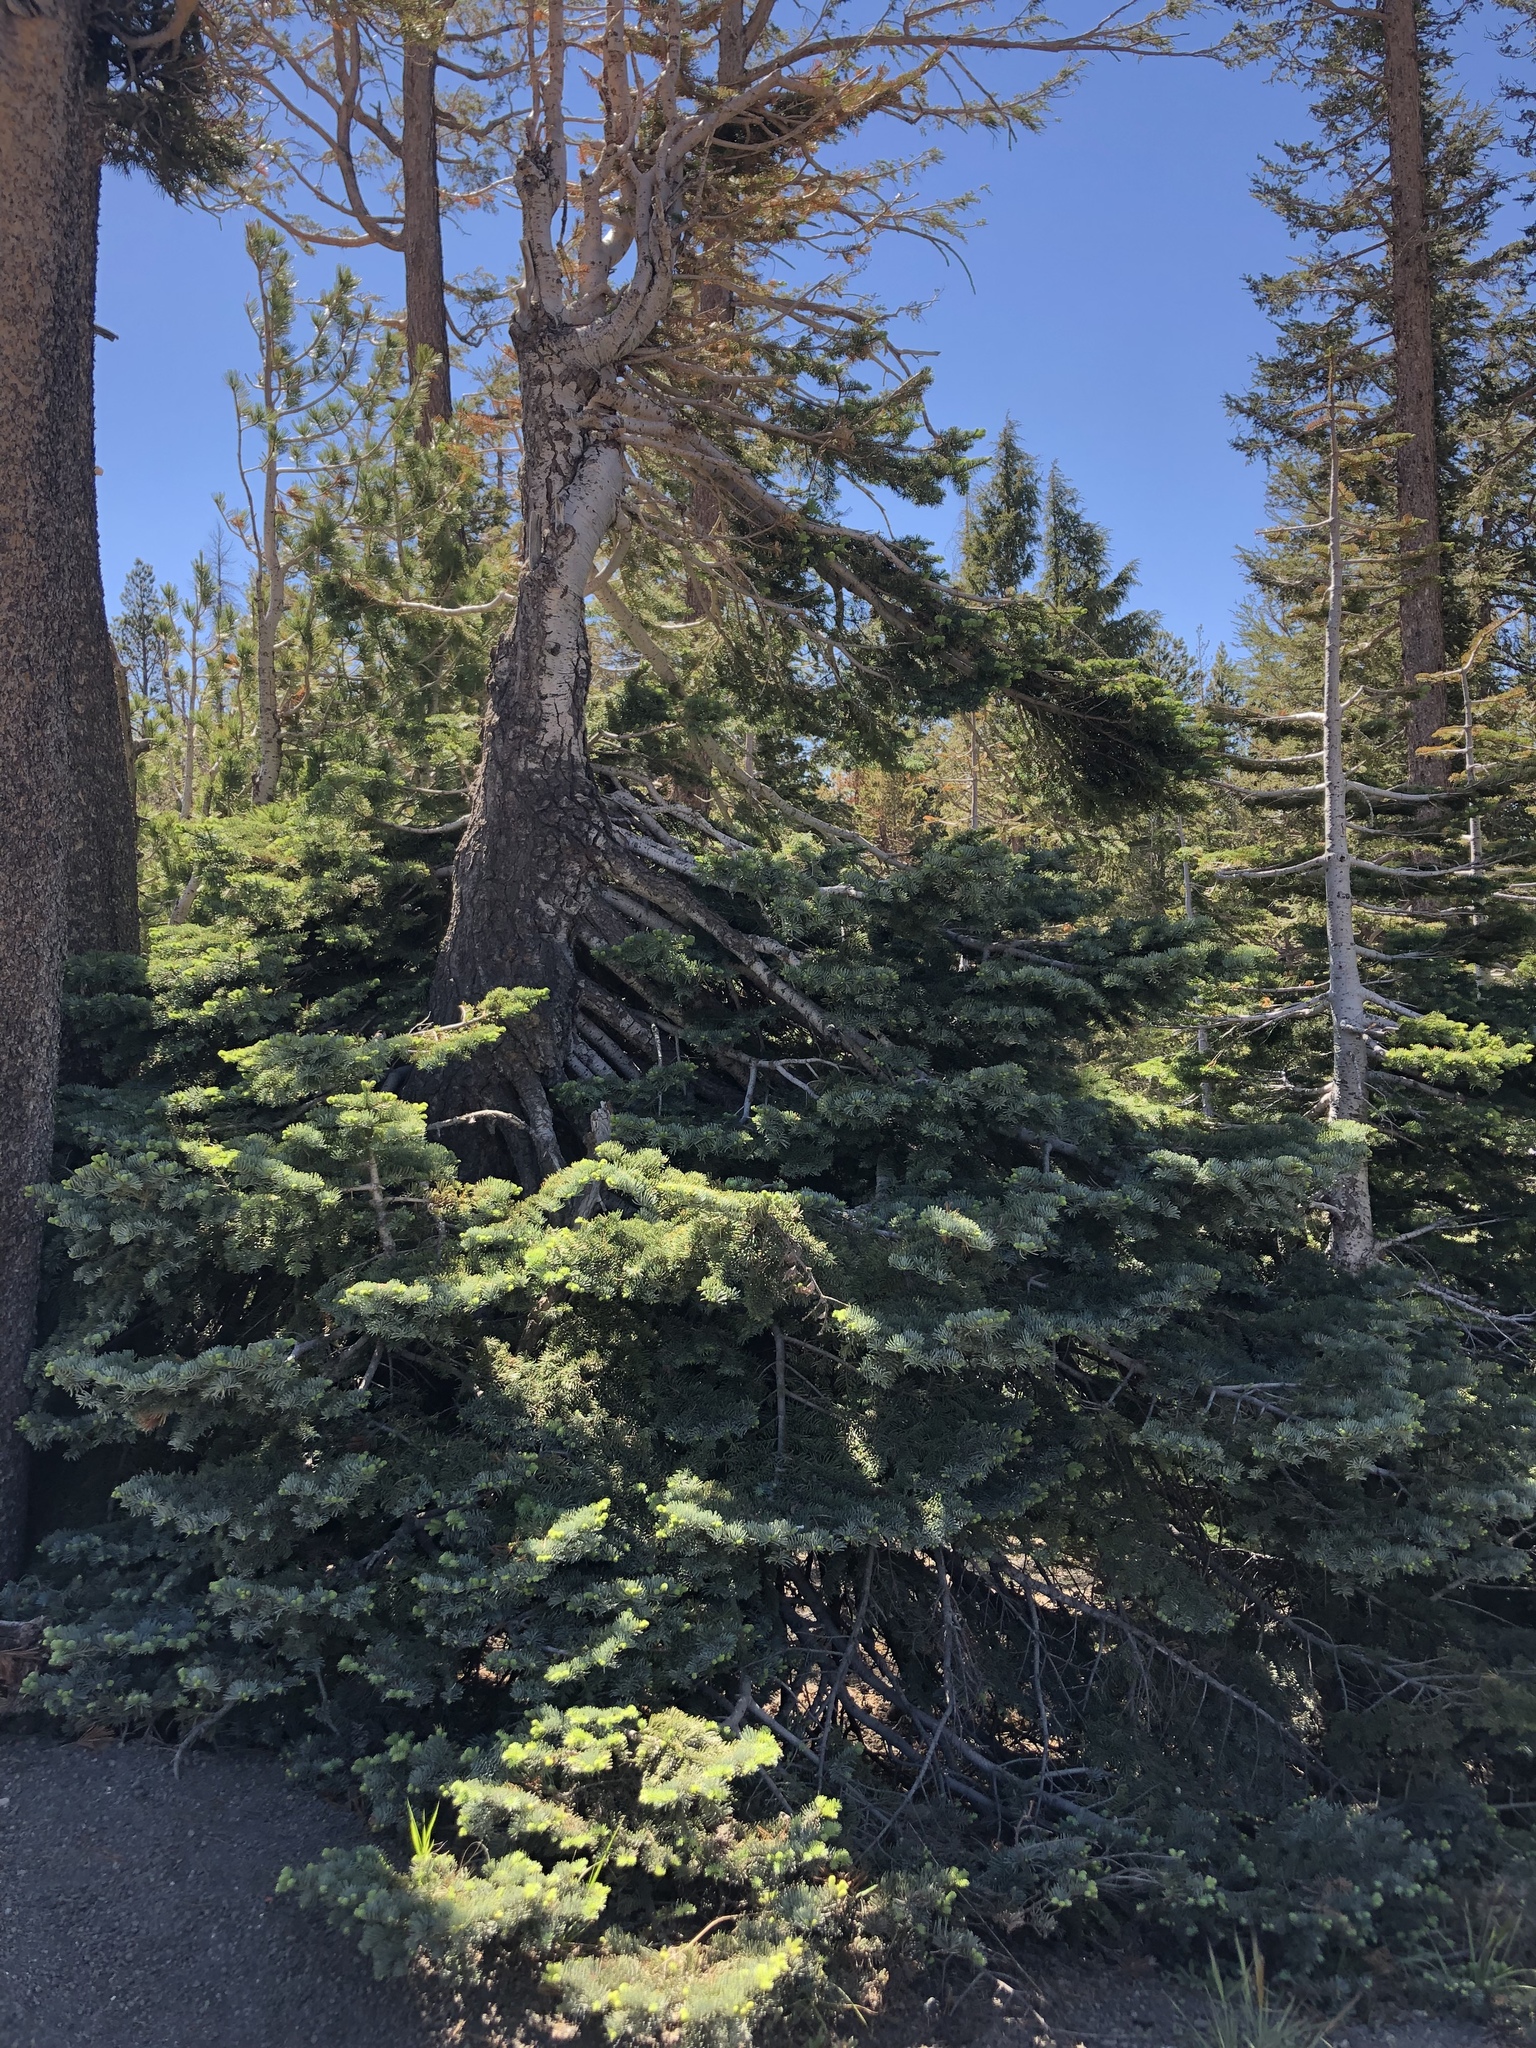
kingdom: Plantae
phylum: Tracheophyta
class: Pinopsida
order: Pinales
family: Pinaceae
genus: Abies
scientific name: Abies magnifica bis
